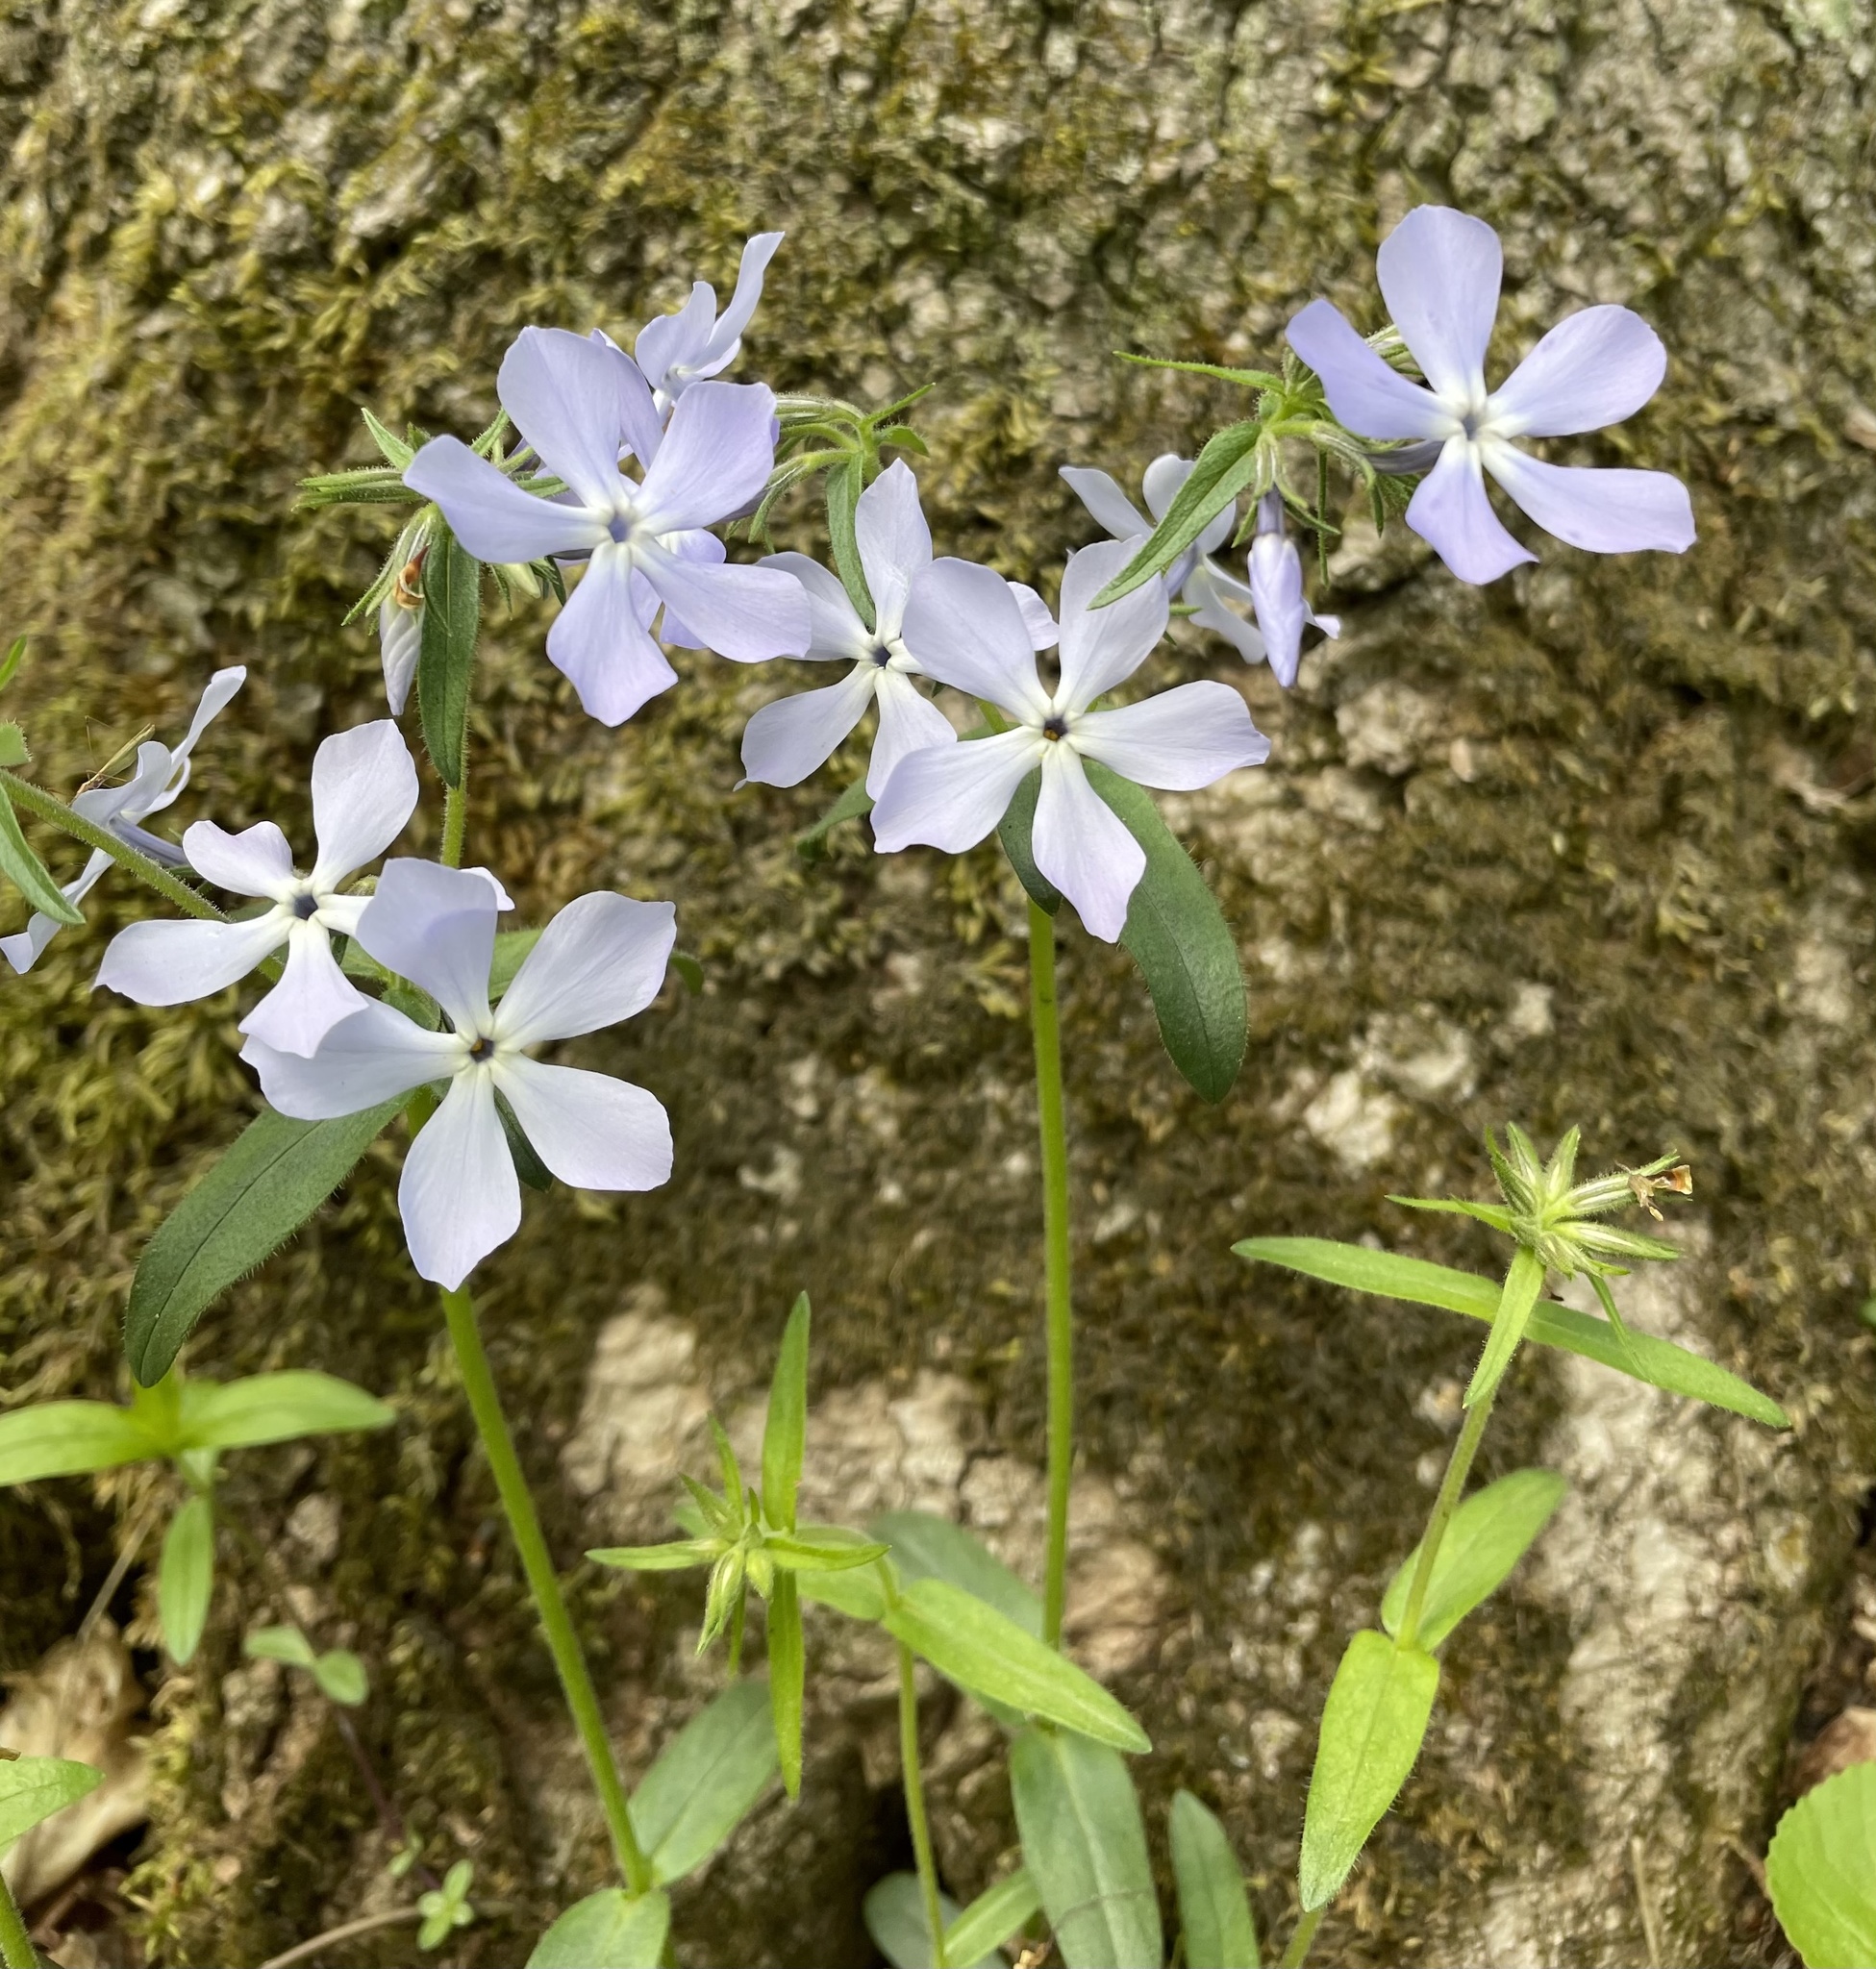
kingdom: Plantae
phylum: Tracheophyta
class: Magnoliopsida
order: Ericales
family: Polemoniaceae
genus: Phlox
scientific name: Phlox divaricata
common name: Blue phlox
